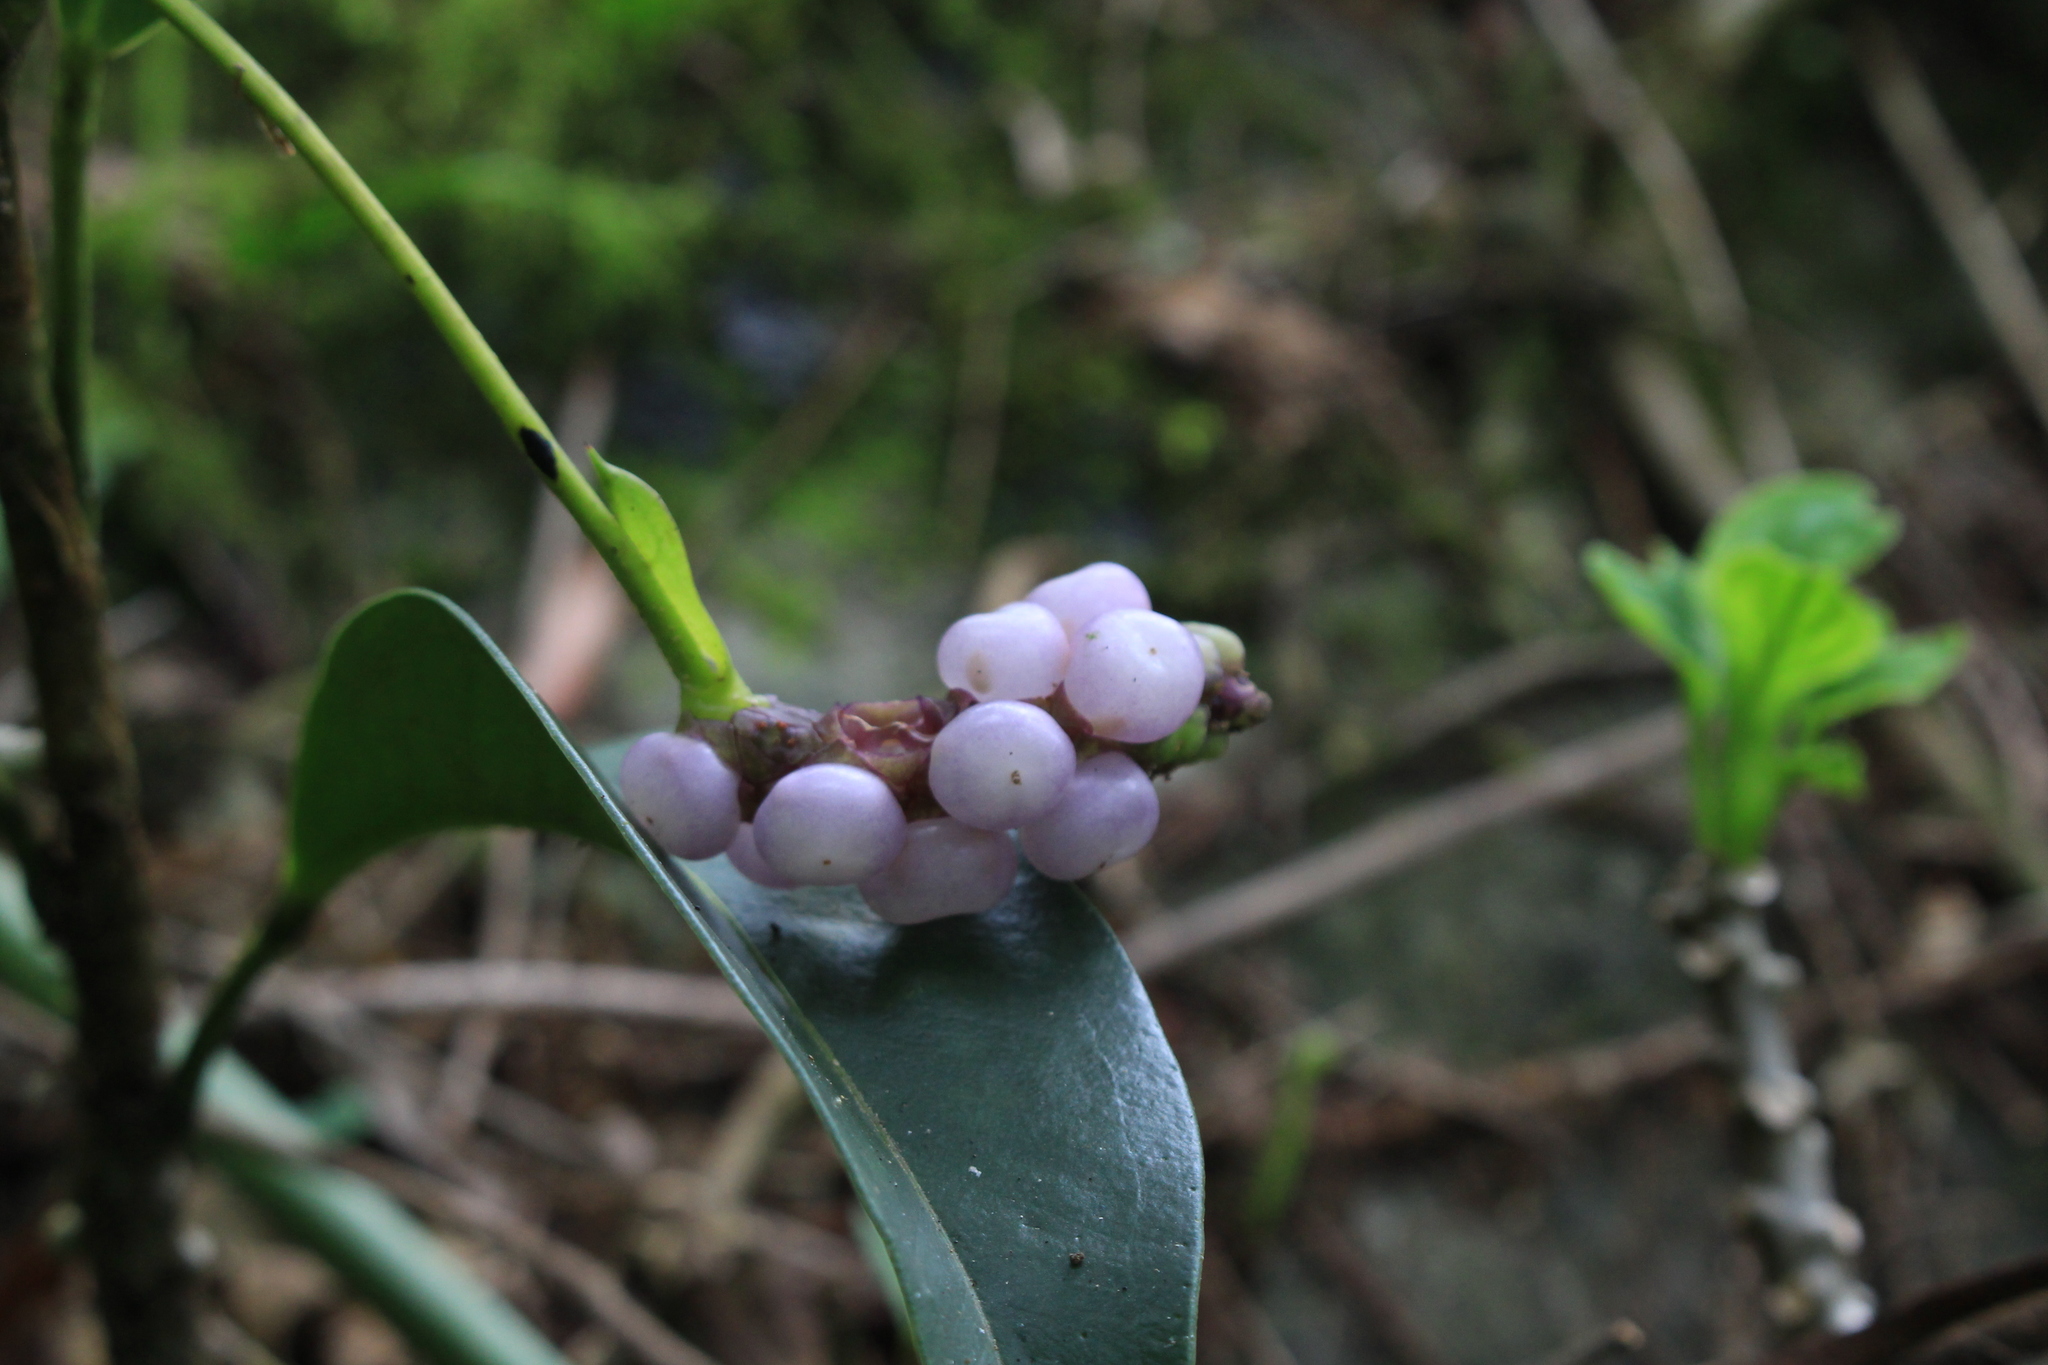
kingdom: Plantae
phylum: Tracheophyta
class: Liliopsida
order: Alismatales
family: Araceae
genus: Anthurium
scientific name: Anthurium scandens
